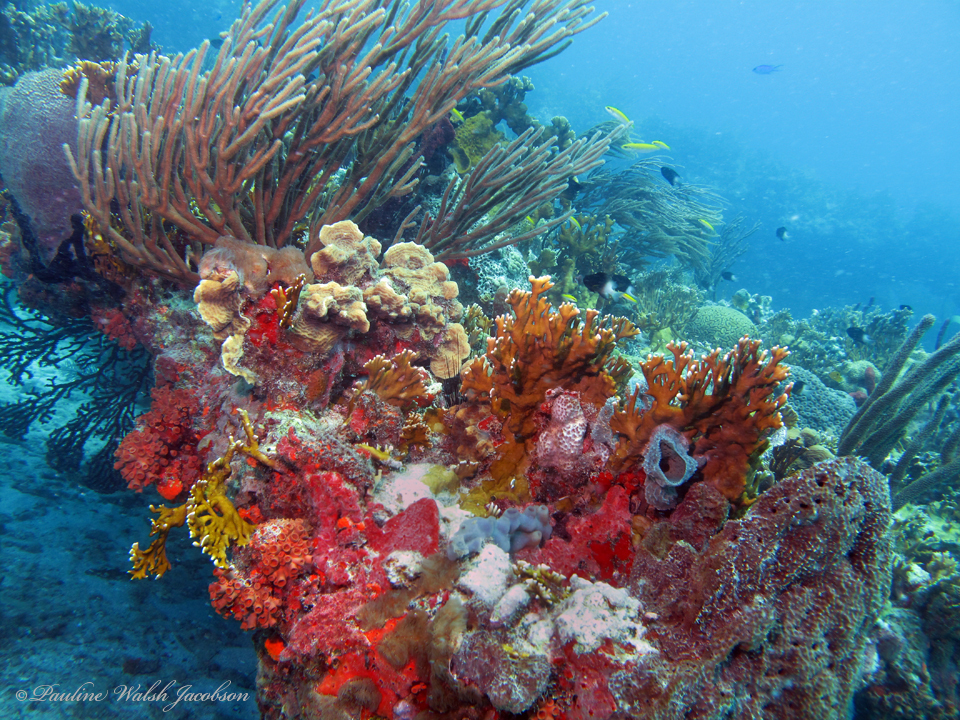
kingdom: Animalia
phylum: Cnidaria
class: Hydrozoa
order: Anthoathecata
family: Milleporidae
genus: Millepora
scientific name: Millepora alcicornis
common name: Branching fire coral
